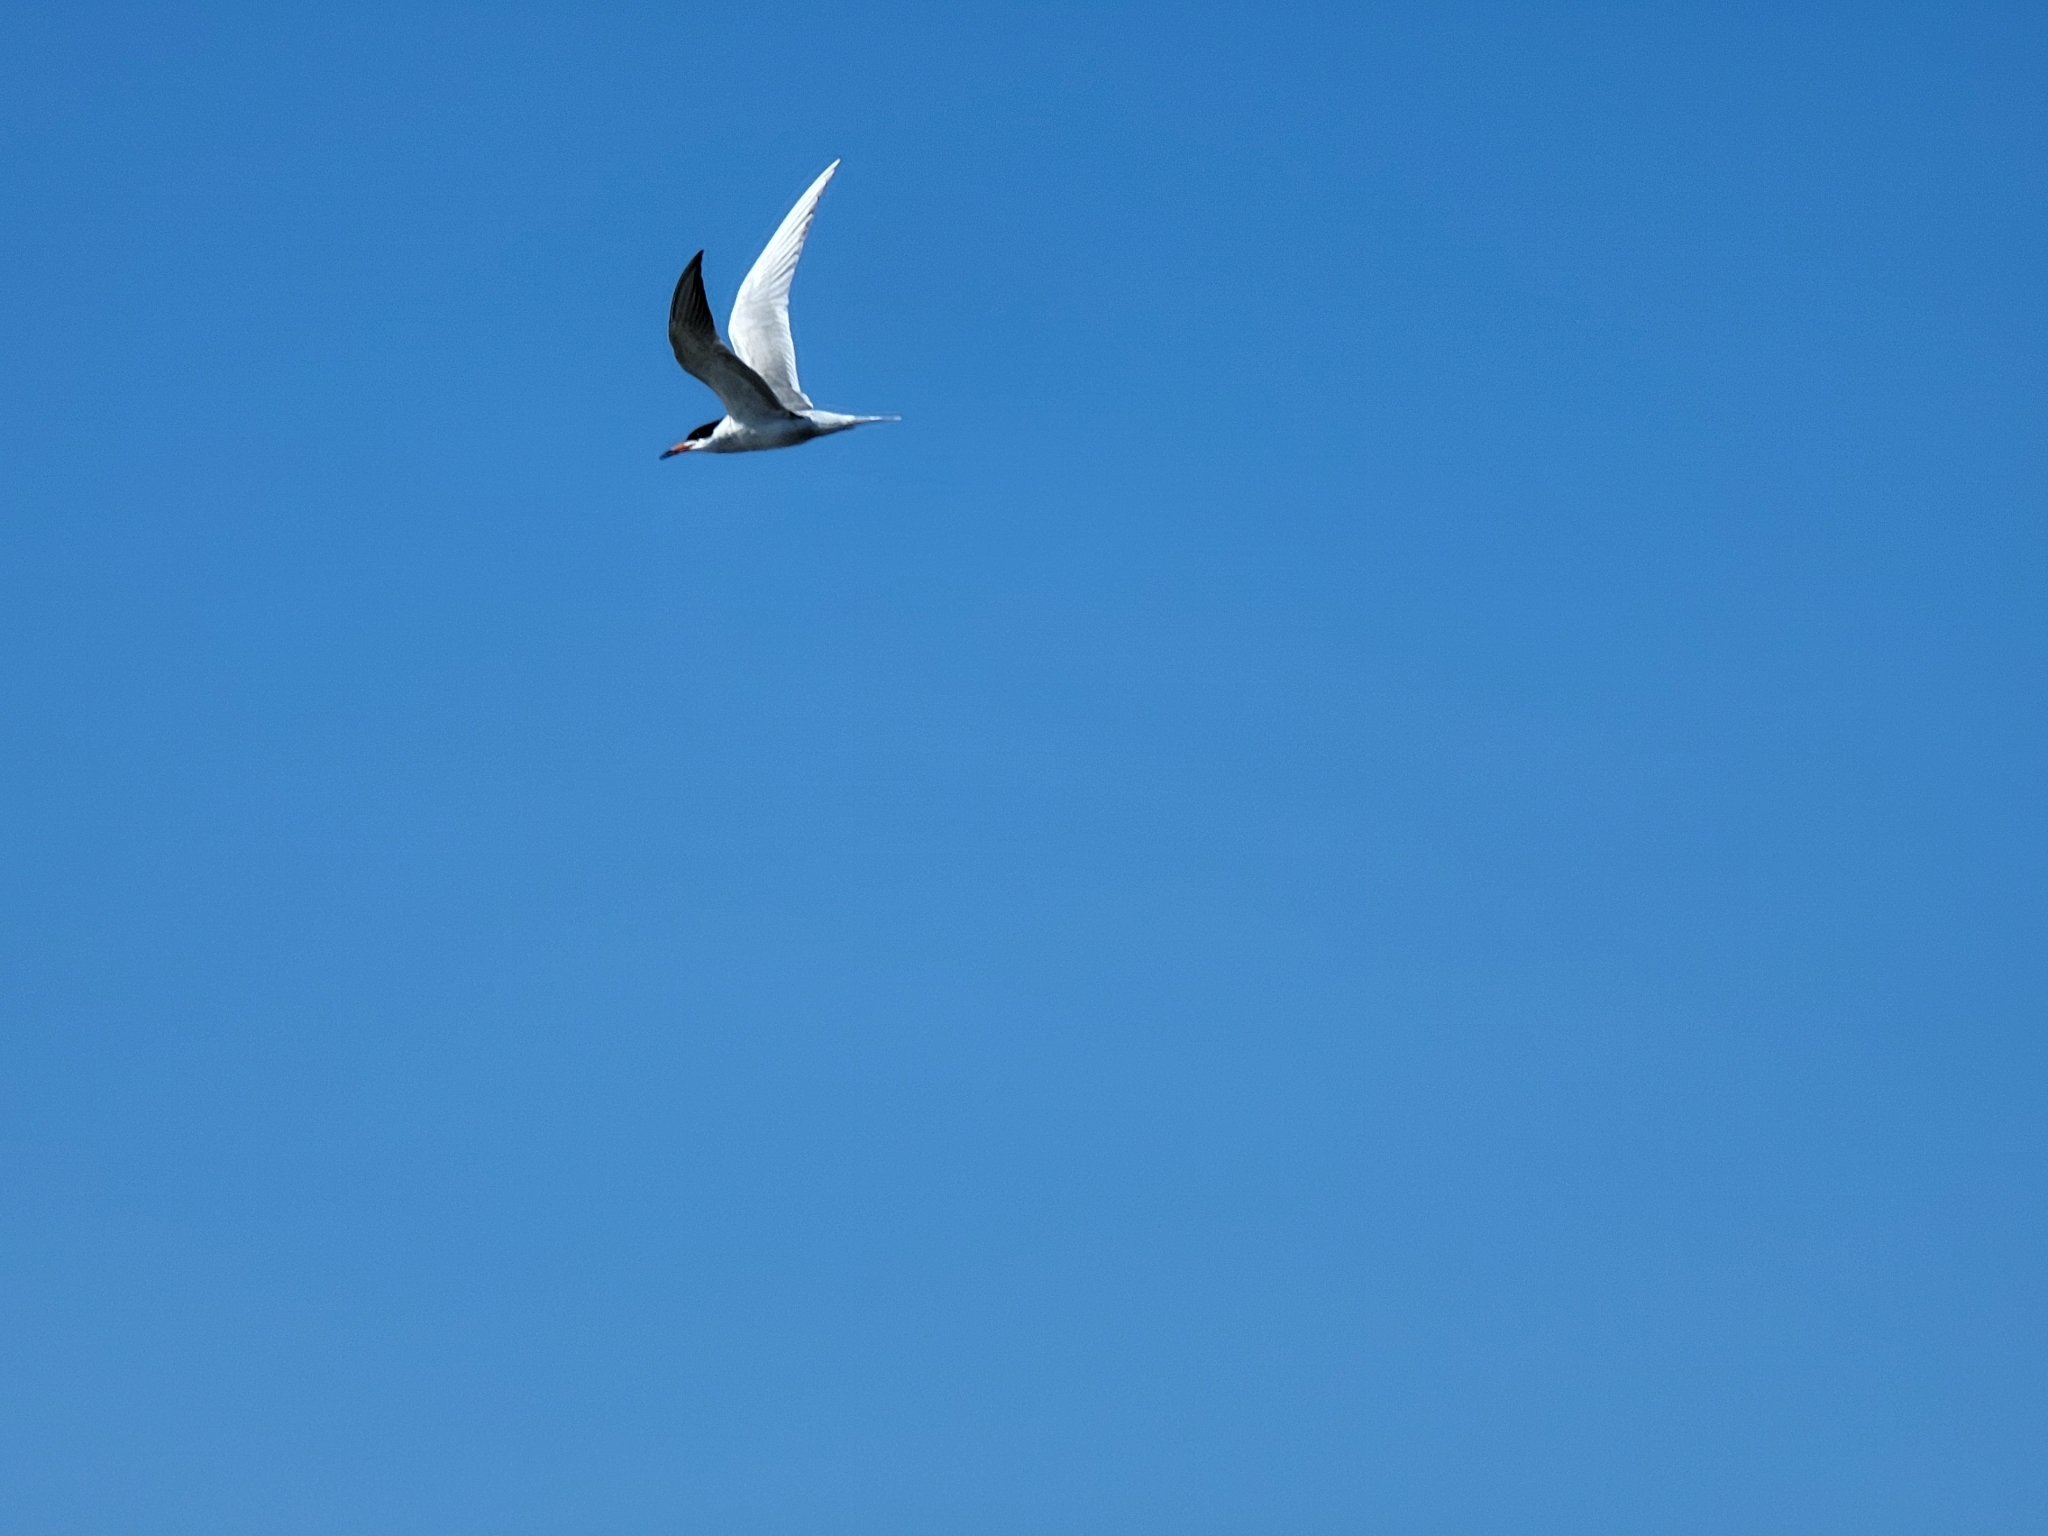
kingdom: Animalia
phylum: Chordata
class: Aves
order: Charadriiformes
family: Laridae
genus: Sterna
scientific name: Sterna hirundo
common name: Common tern
